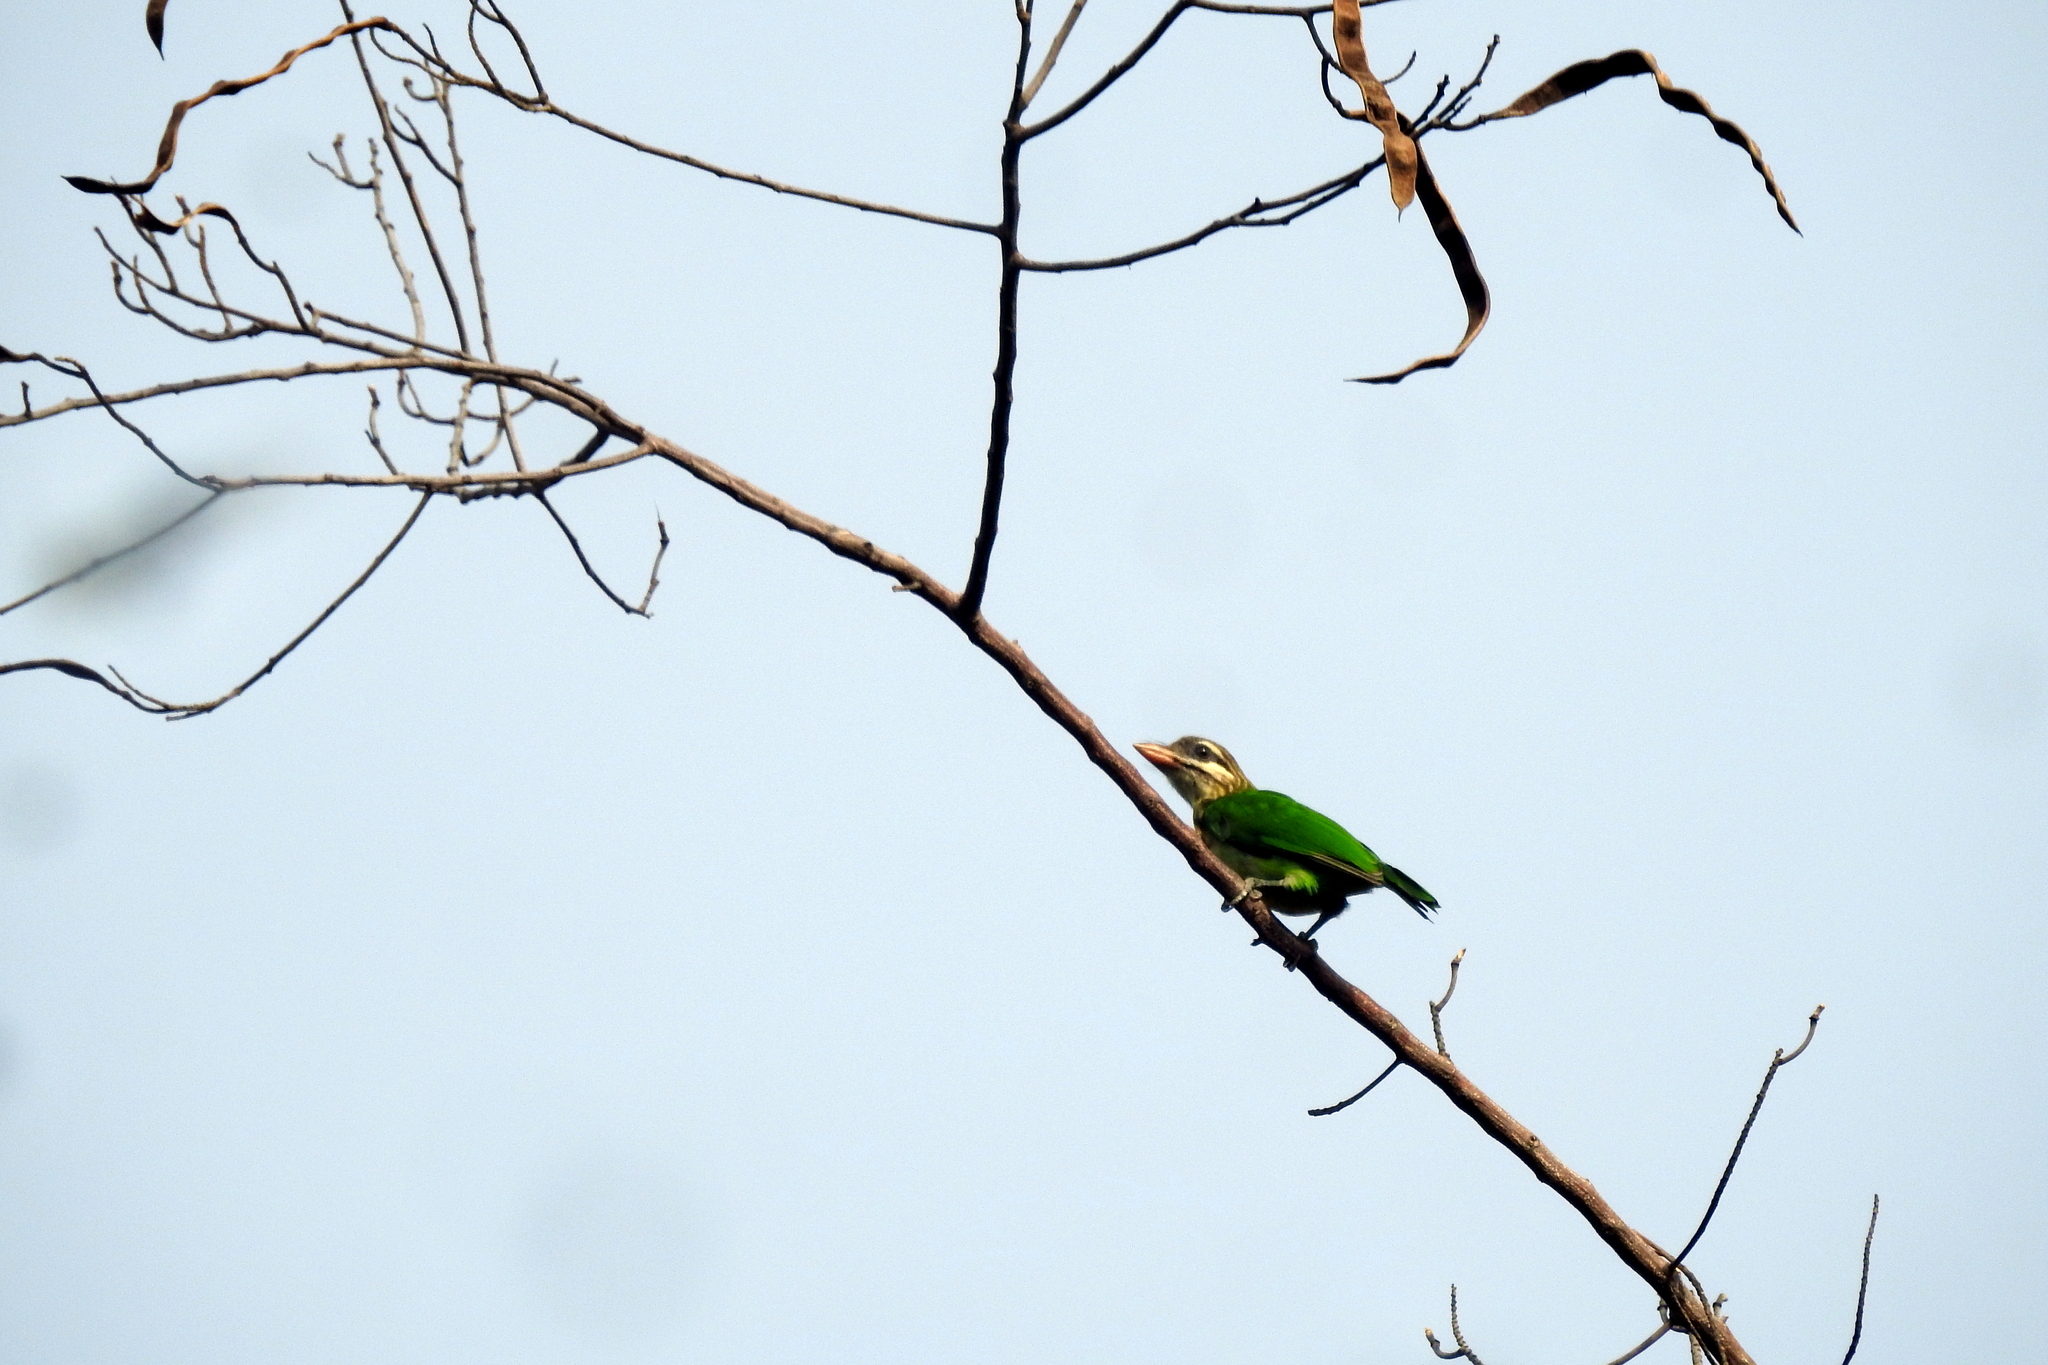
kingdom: Animalia
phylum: Chordata
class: Aves
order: Piciformes
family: Megalaimidae
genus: Psilopogon
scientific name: Psilopogon viridis
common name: White-cheeked barbet
